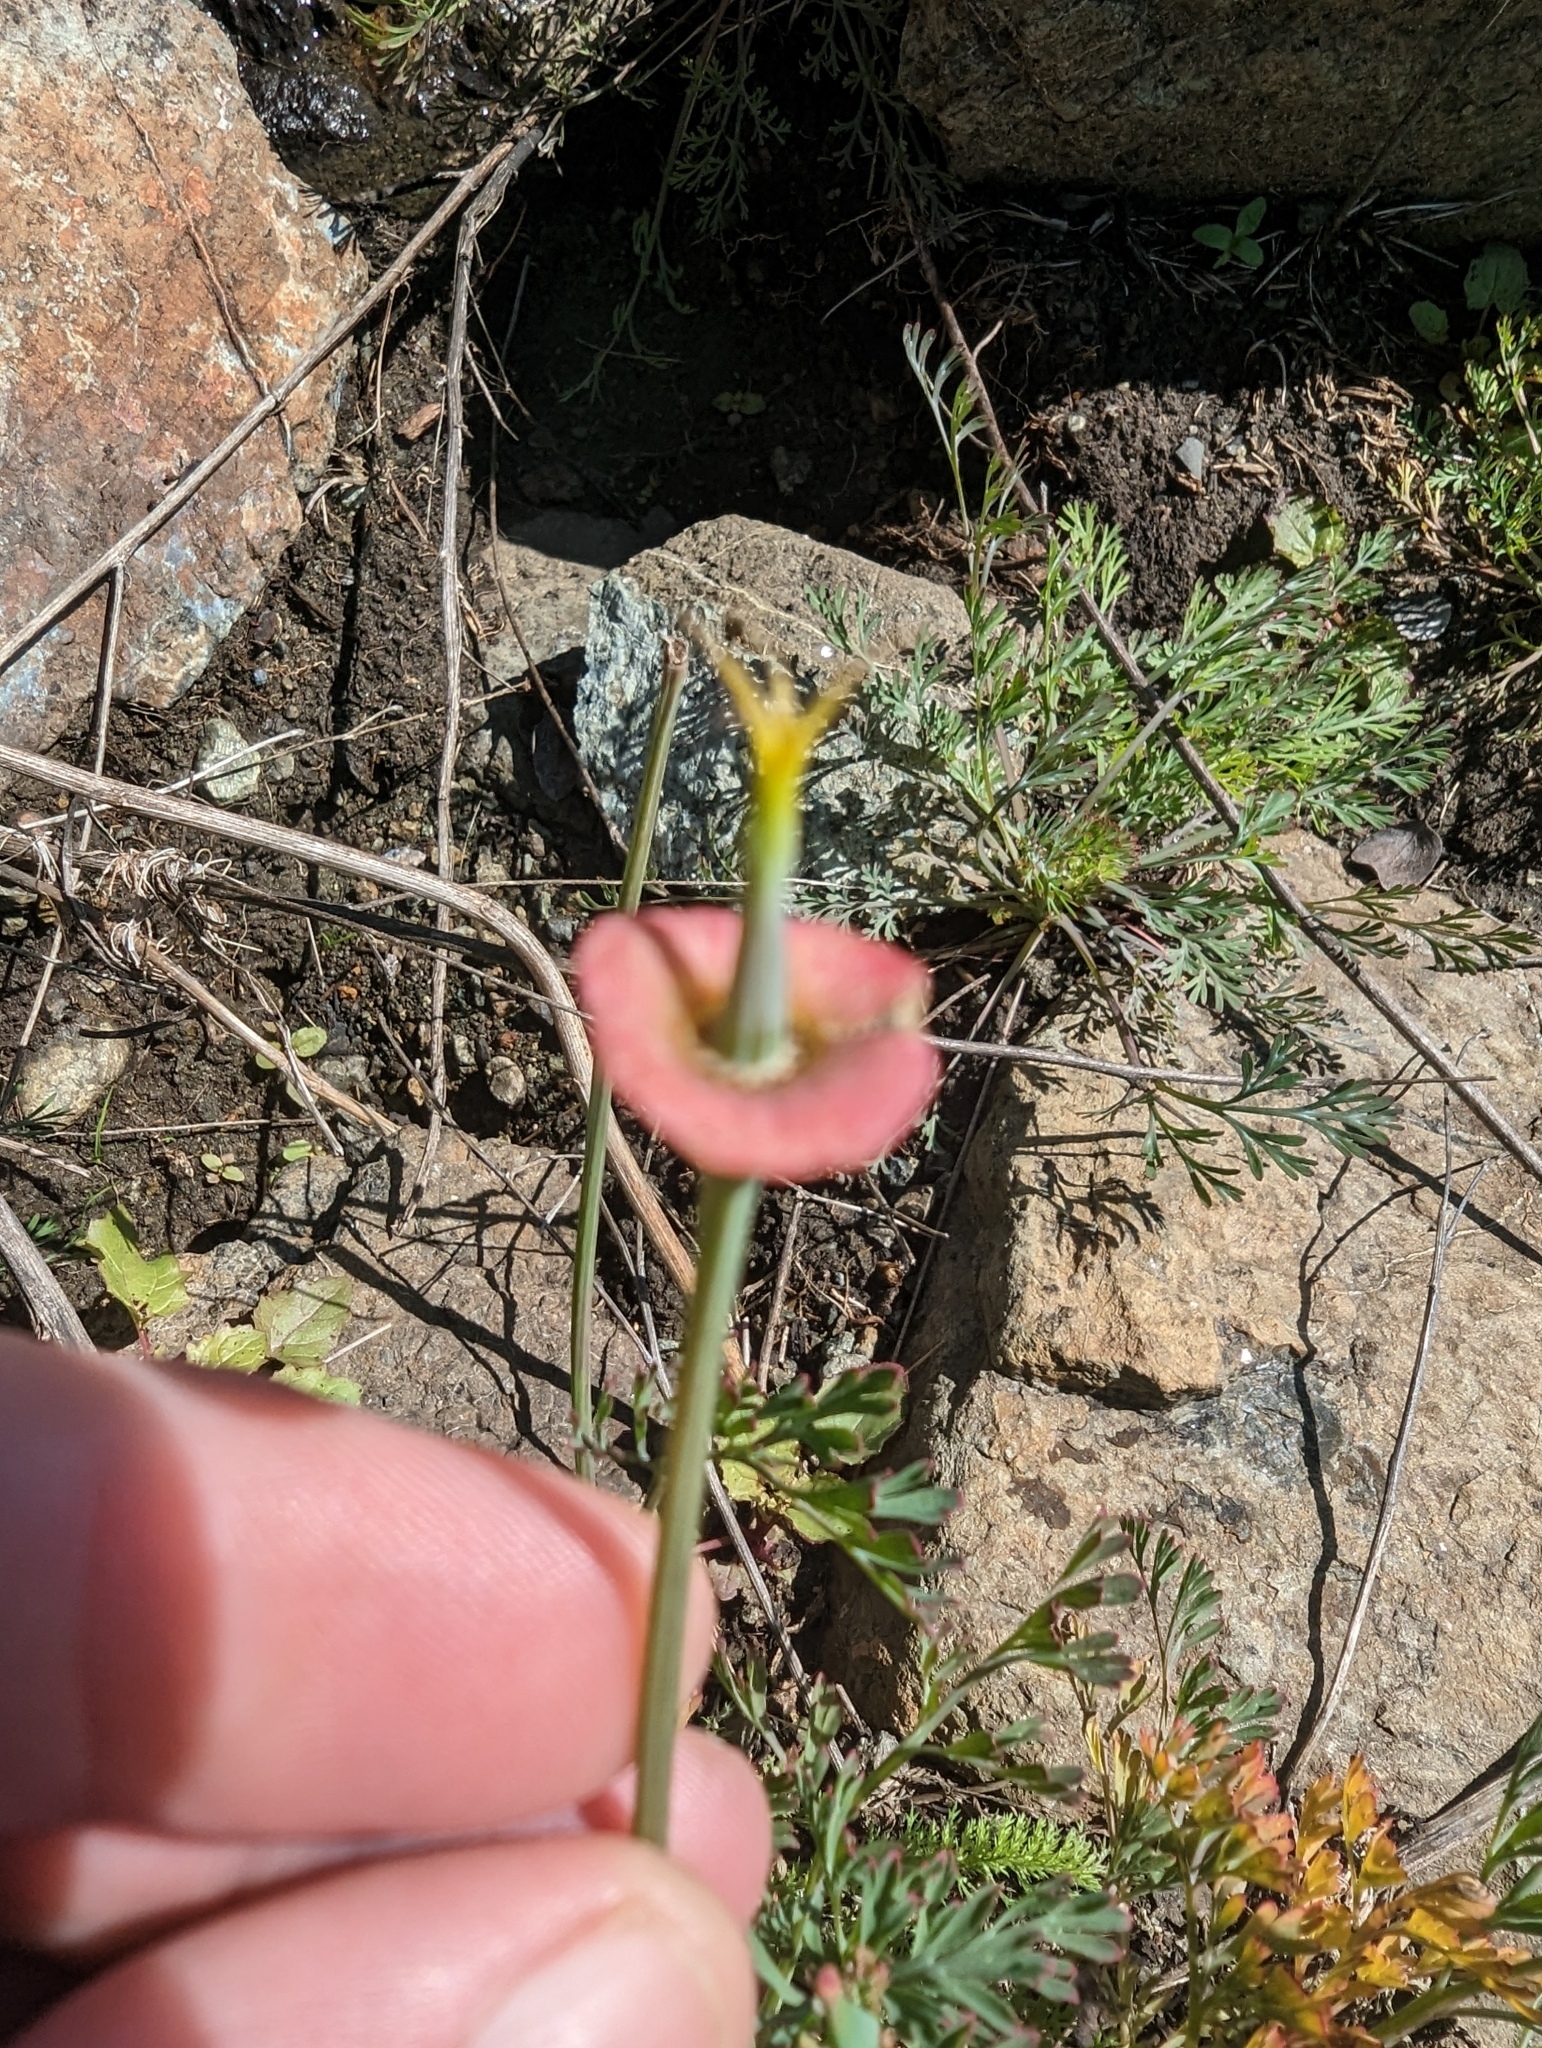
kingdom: Plantae
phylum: Tracheophyta
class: Magnoliopsida
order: Ranunculales
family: Papaveraceae
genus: Eschscholzia
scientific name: Eschscholzia californica
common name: California poppy
